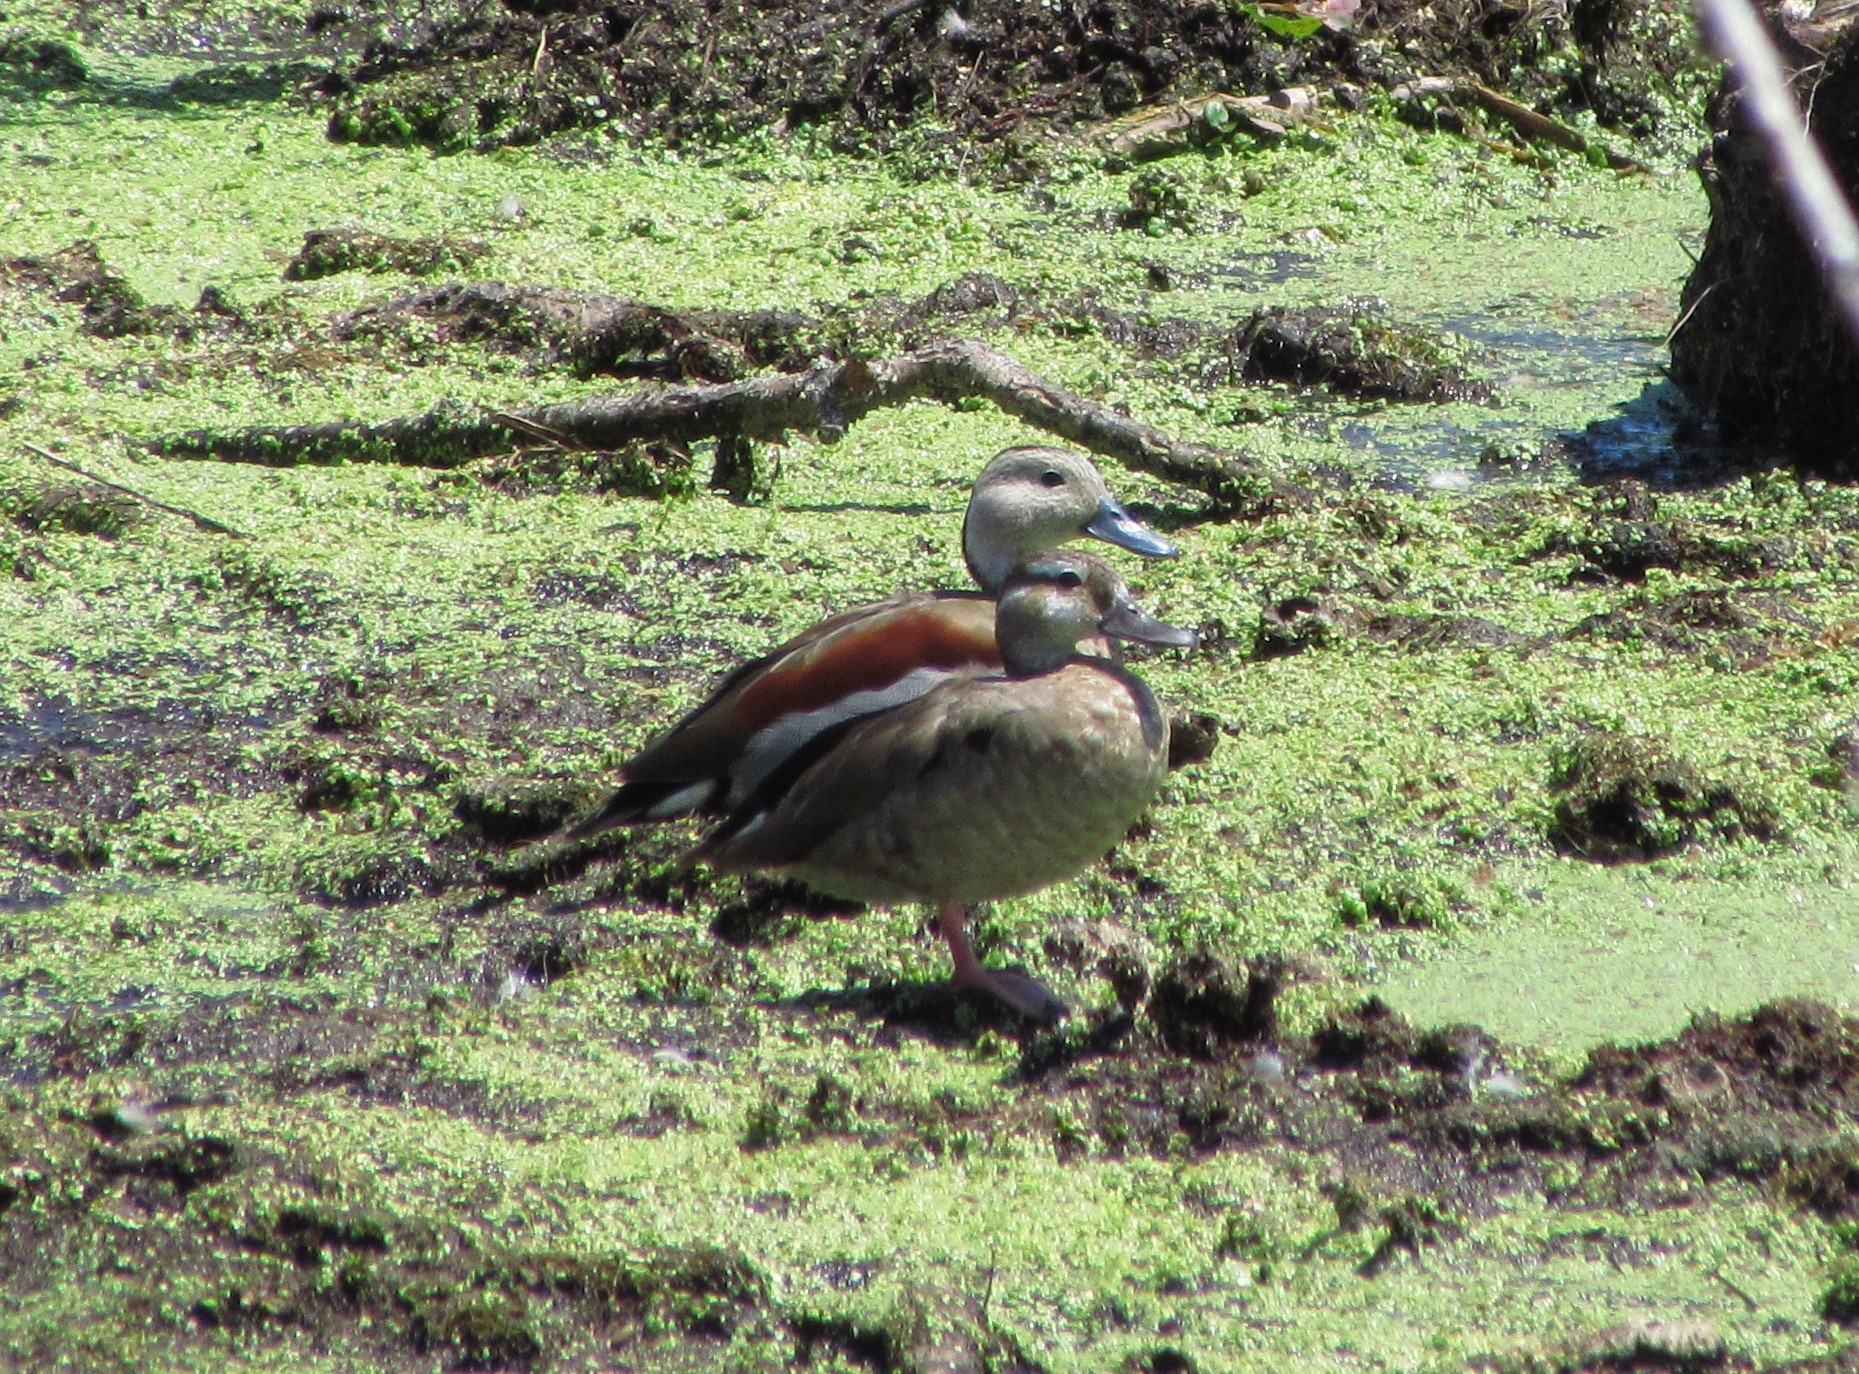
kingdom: Animalia
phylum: Chordata
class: Aves
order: Anseriformes
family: Anatidae
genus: Callonetta
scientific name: Callonetta leucophrys
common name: Ringed teal
